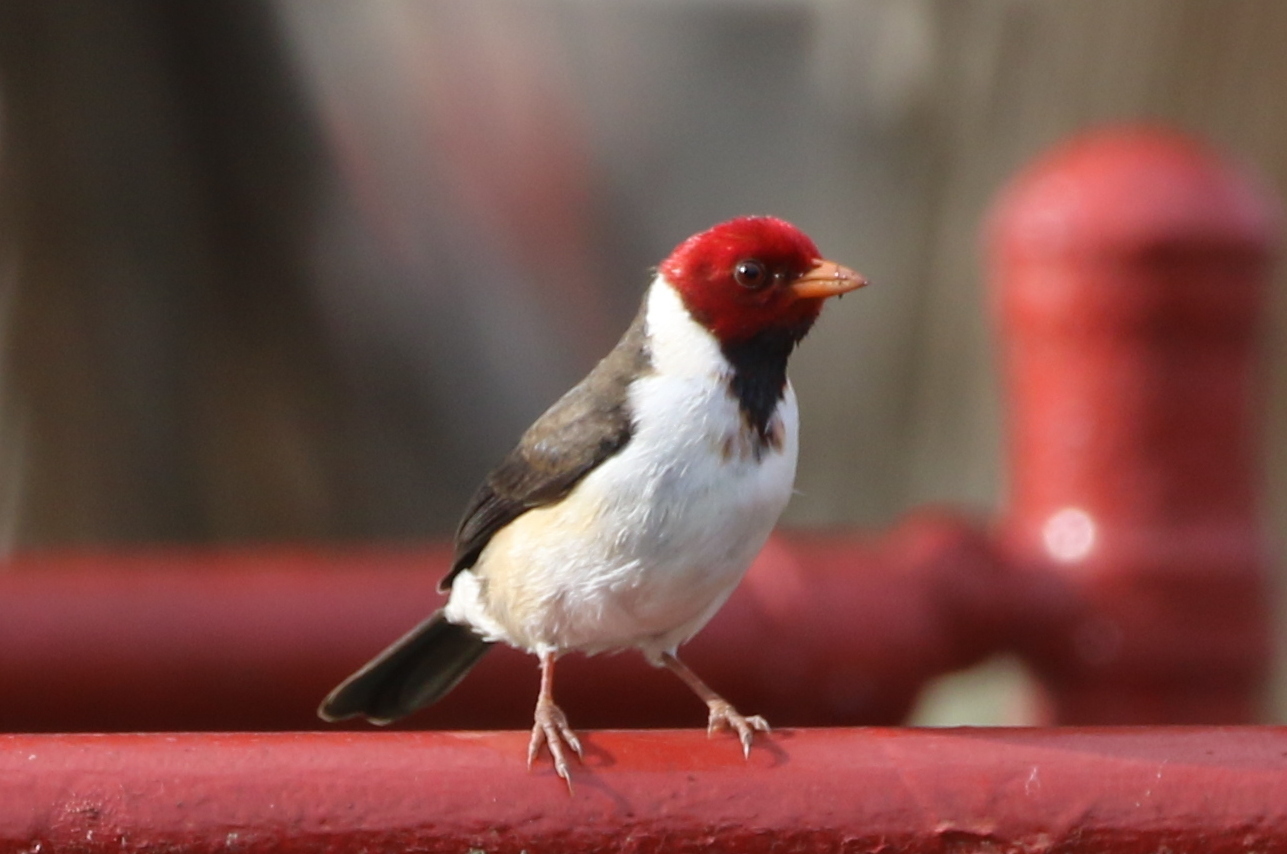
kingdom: Animalia
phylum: Chordata
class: Aves
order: Passeriformes
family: Thraupidae
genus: Paroaria
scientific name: Paroaria capitata
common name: Yellow-billed cardinal
